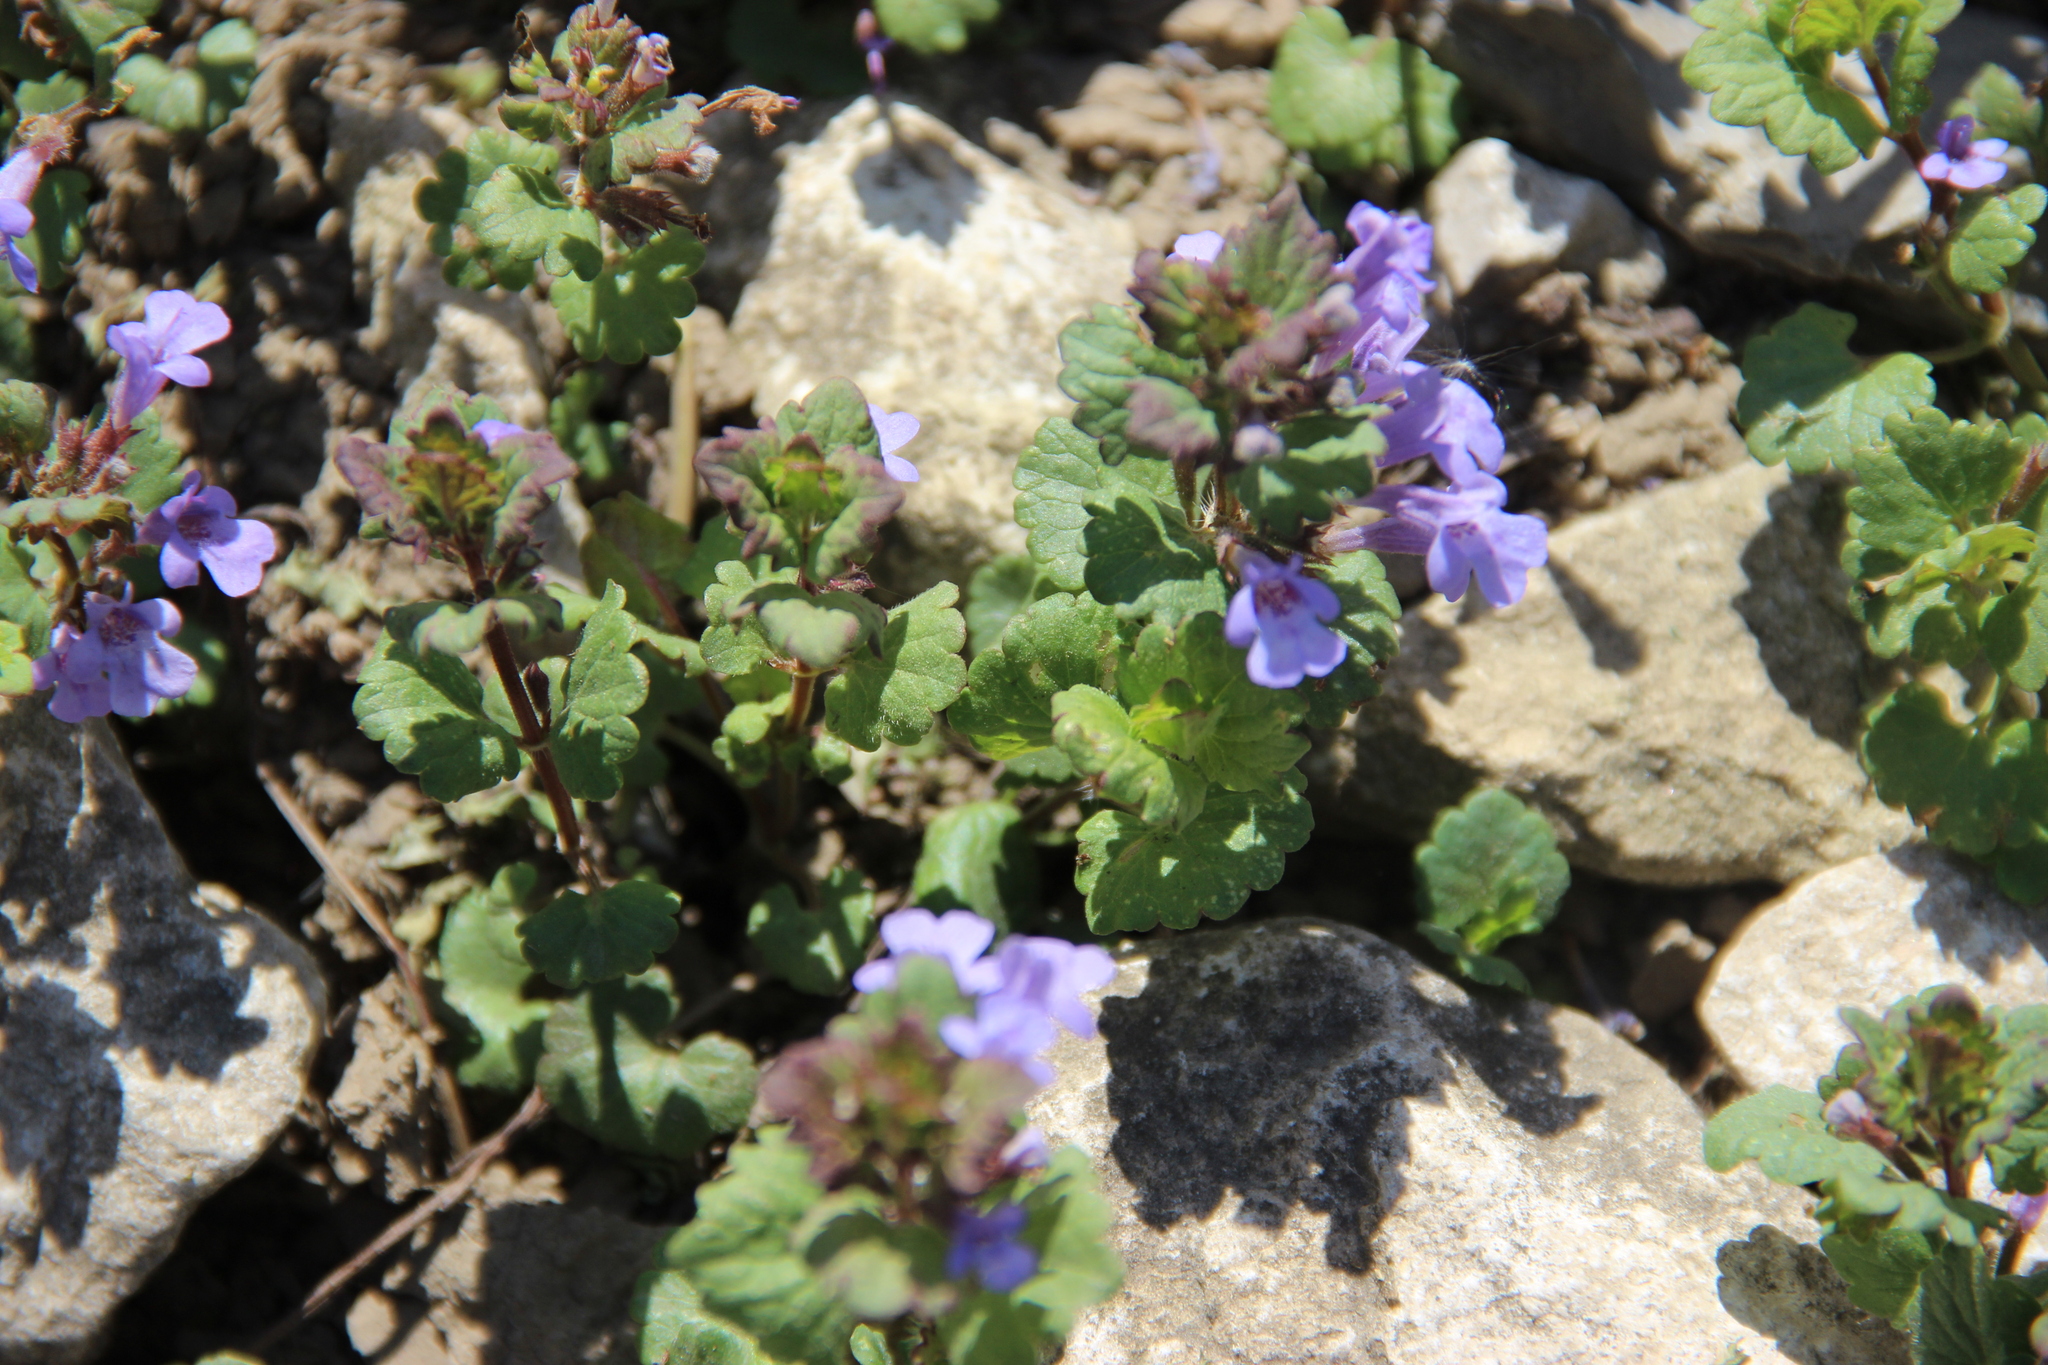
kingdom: Plantae
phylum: Tracheophyta
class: Magnoliopsida
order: Lamiales
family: Lamiaceae
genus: Glechoma
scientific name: Glechoma hederacea
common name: Ground ivy
